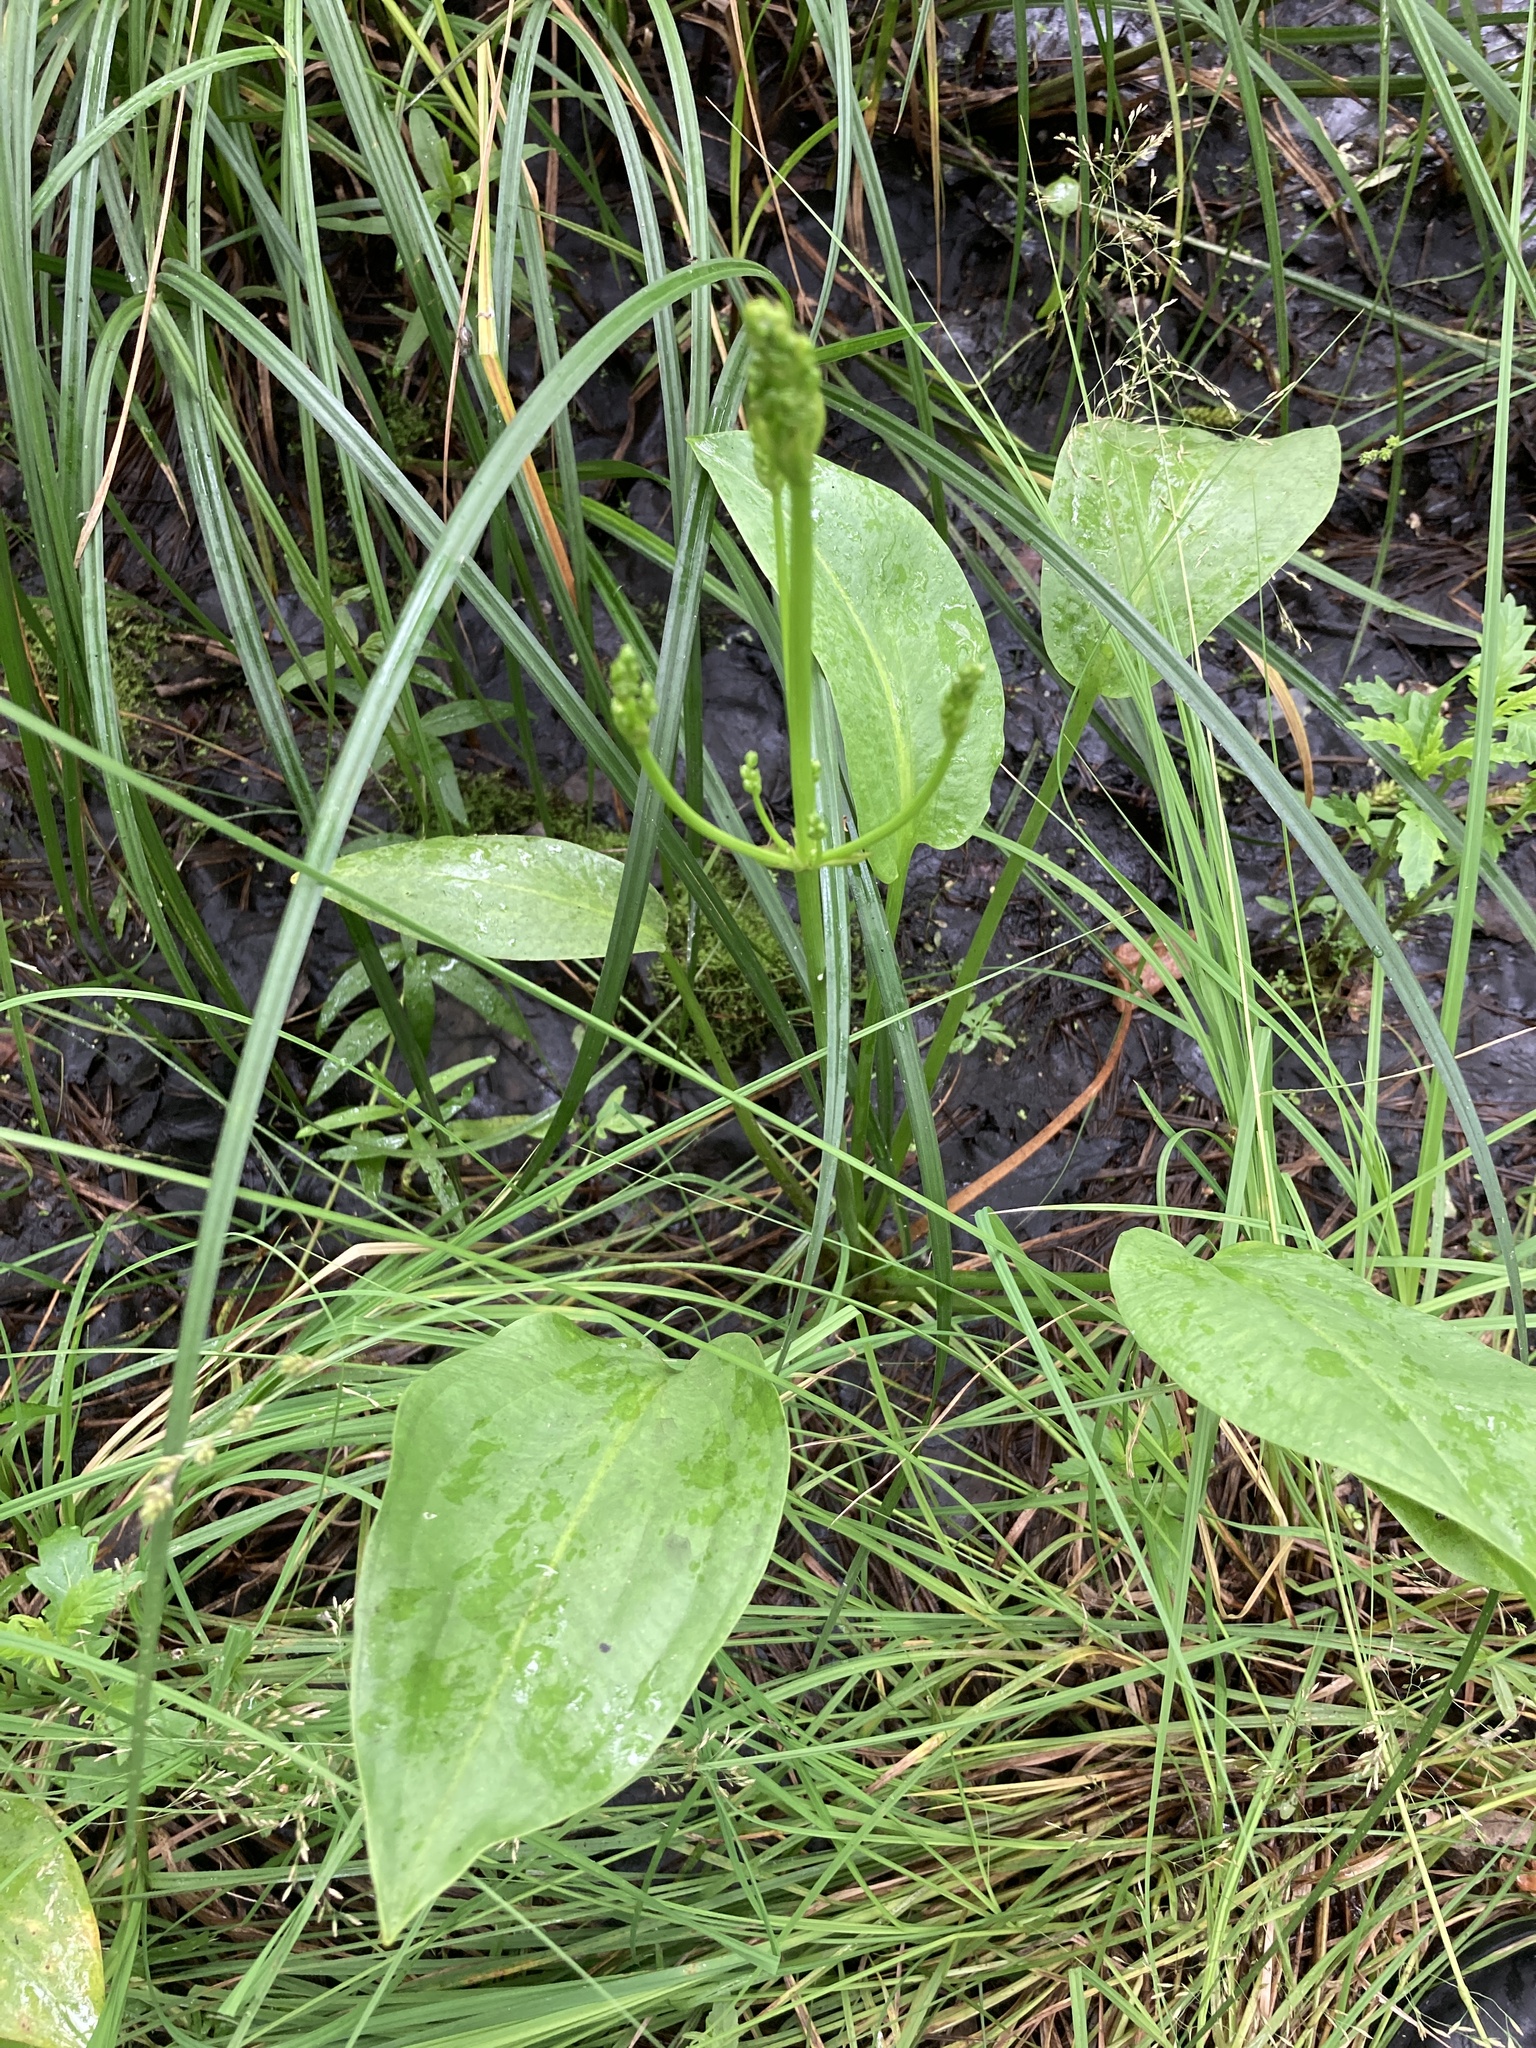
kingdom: Plantae
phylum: Tracheophyta
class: Liliopsida
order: Alismatales
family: Alismataceae
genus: Alisma
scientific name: Alisma plantago-aquatica
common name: Water-plantain
